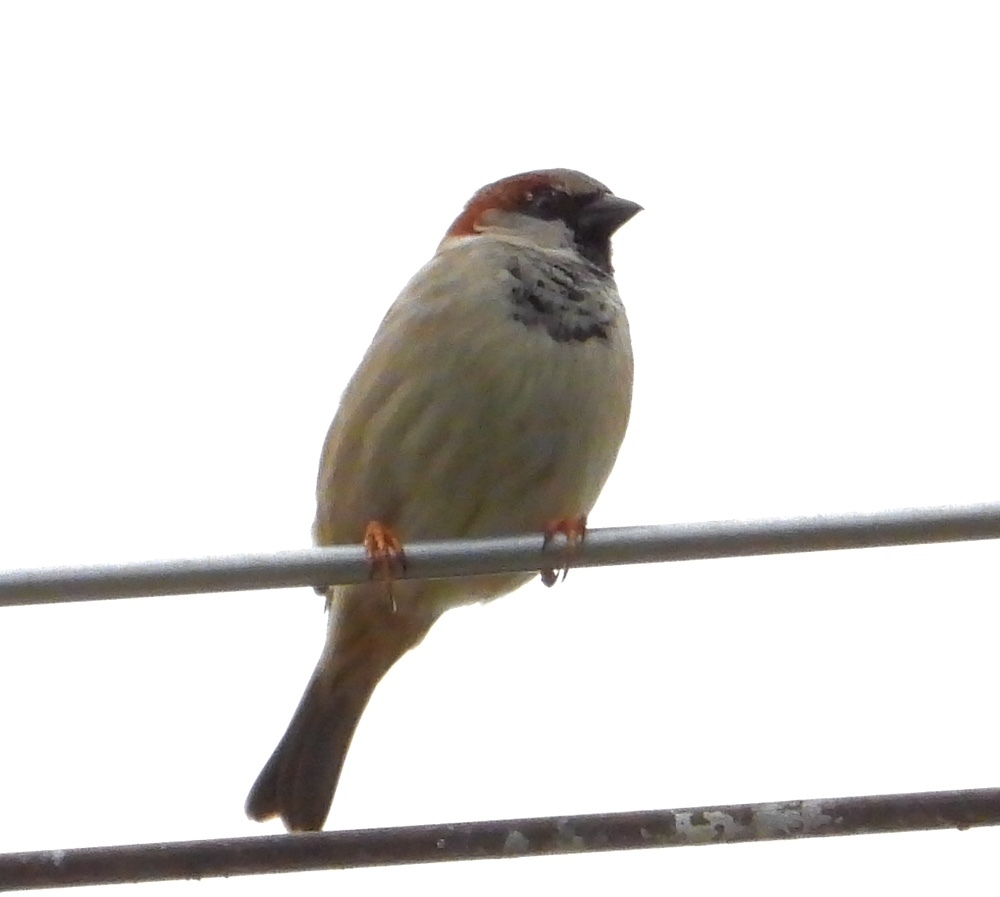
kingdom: Animalia
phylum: Chordata
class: Aves
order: Passeriformes
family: Passeridae
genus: Passer
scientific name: Passer domesticus
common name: House sparrow
